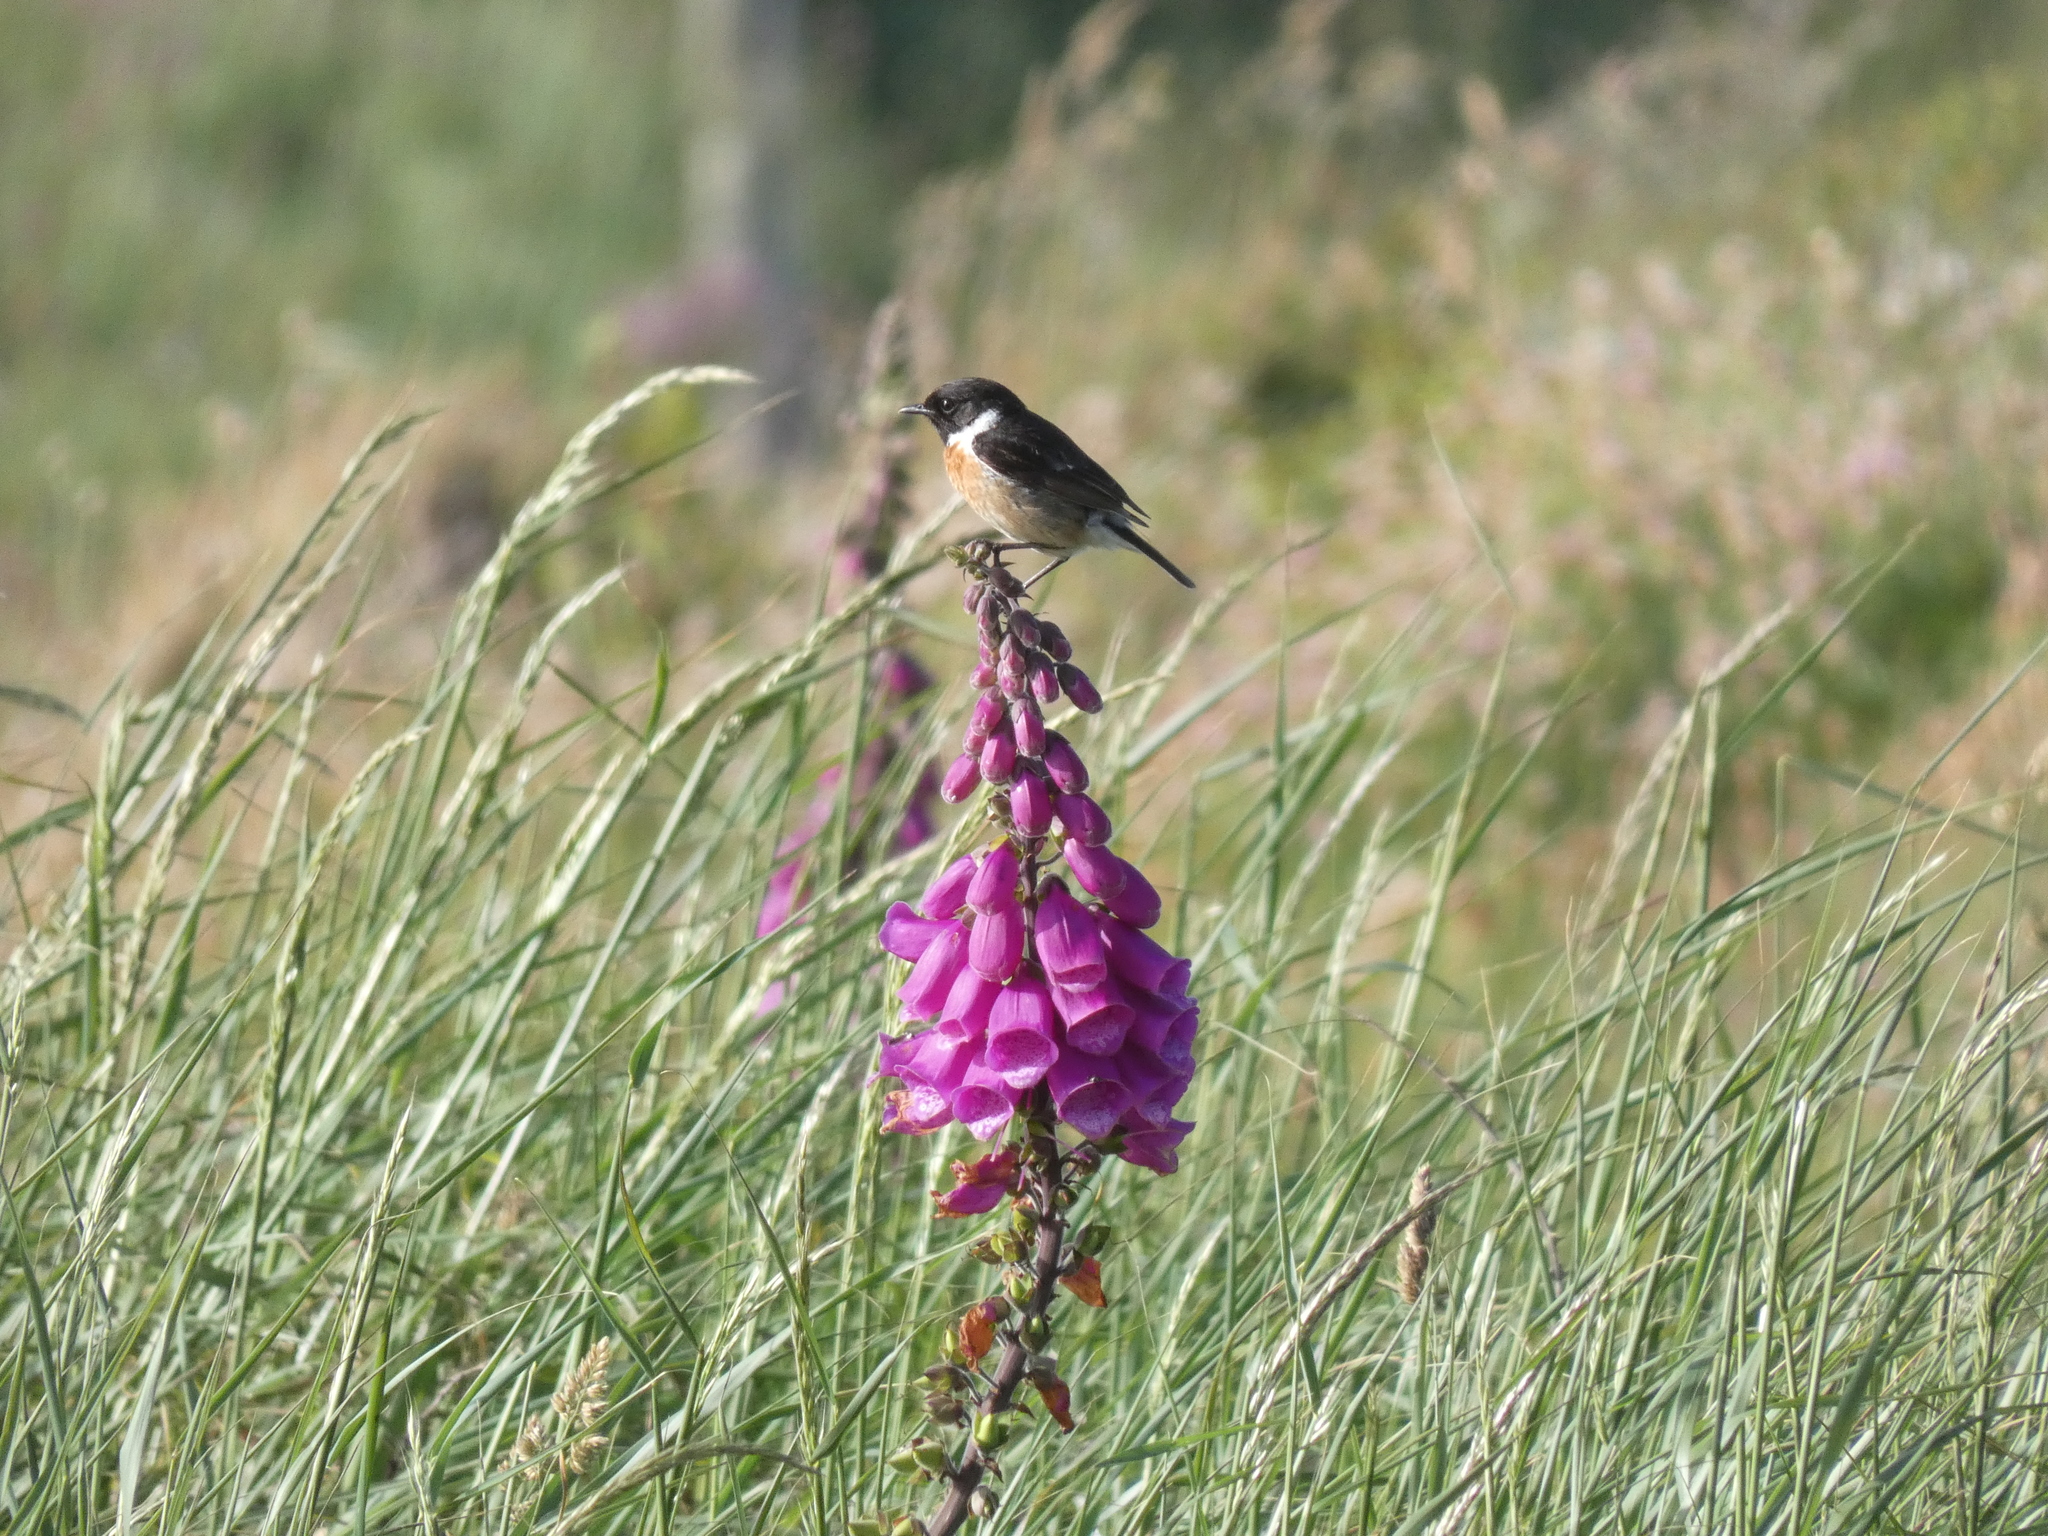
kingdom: Animalia
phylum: Chordata
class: Aves
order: Passeriformes
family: Muscicapidae
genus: Saxicola
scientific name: Saxicola rubicola
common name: European stonechat
